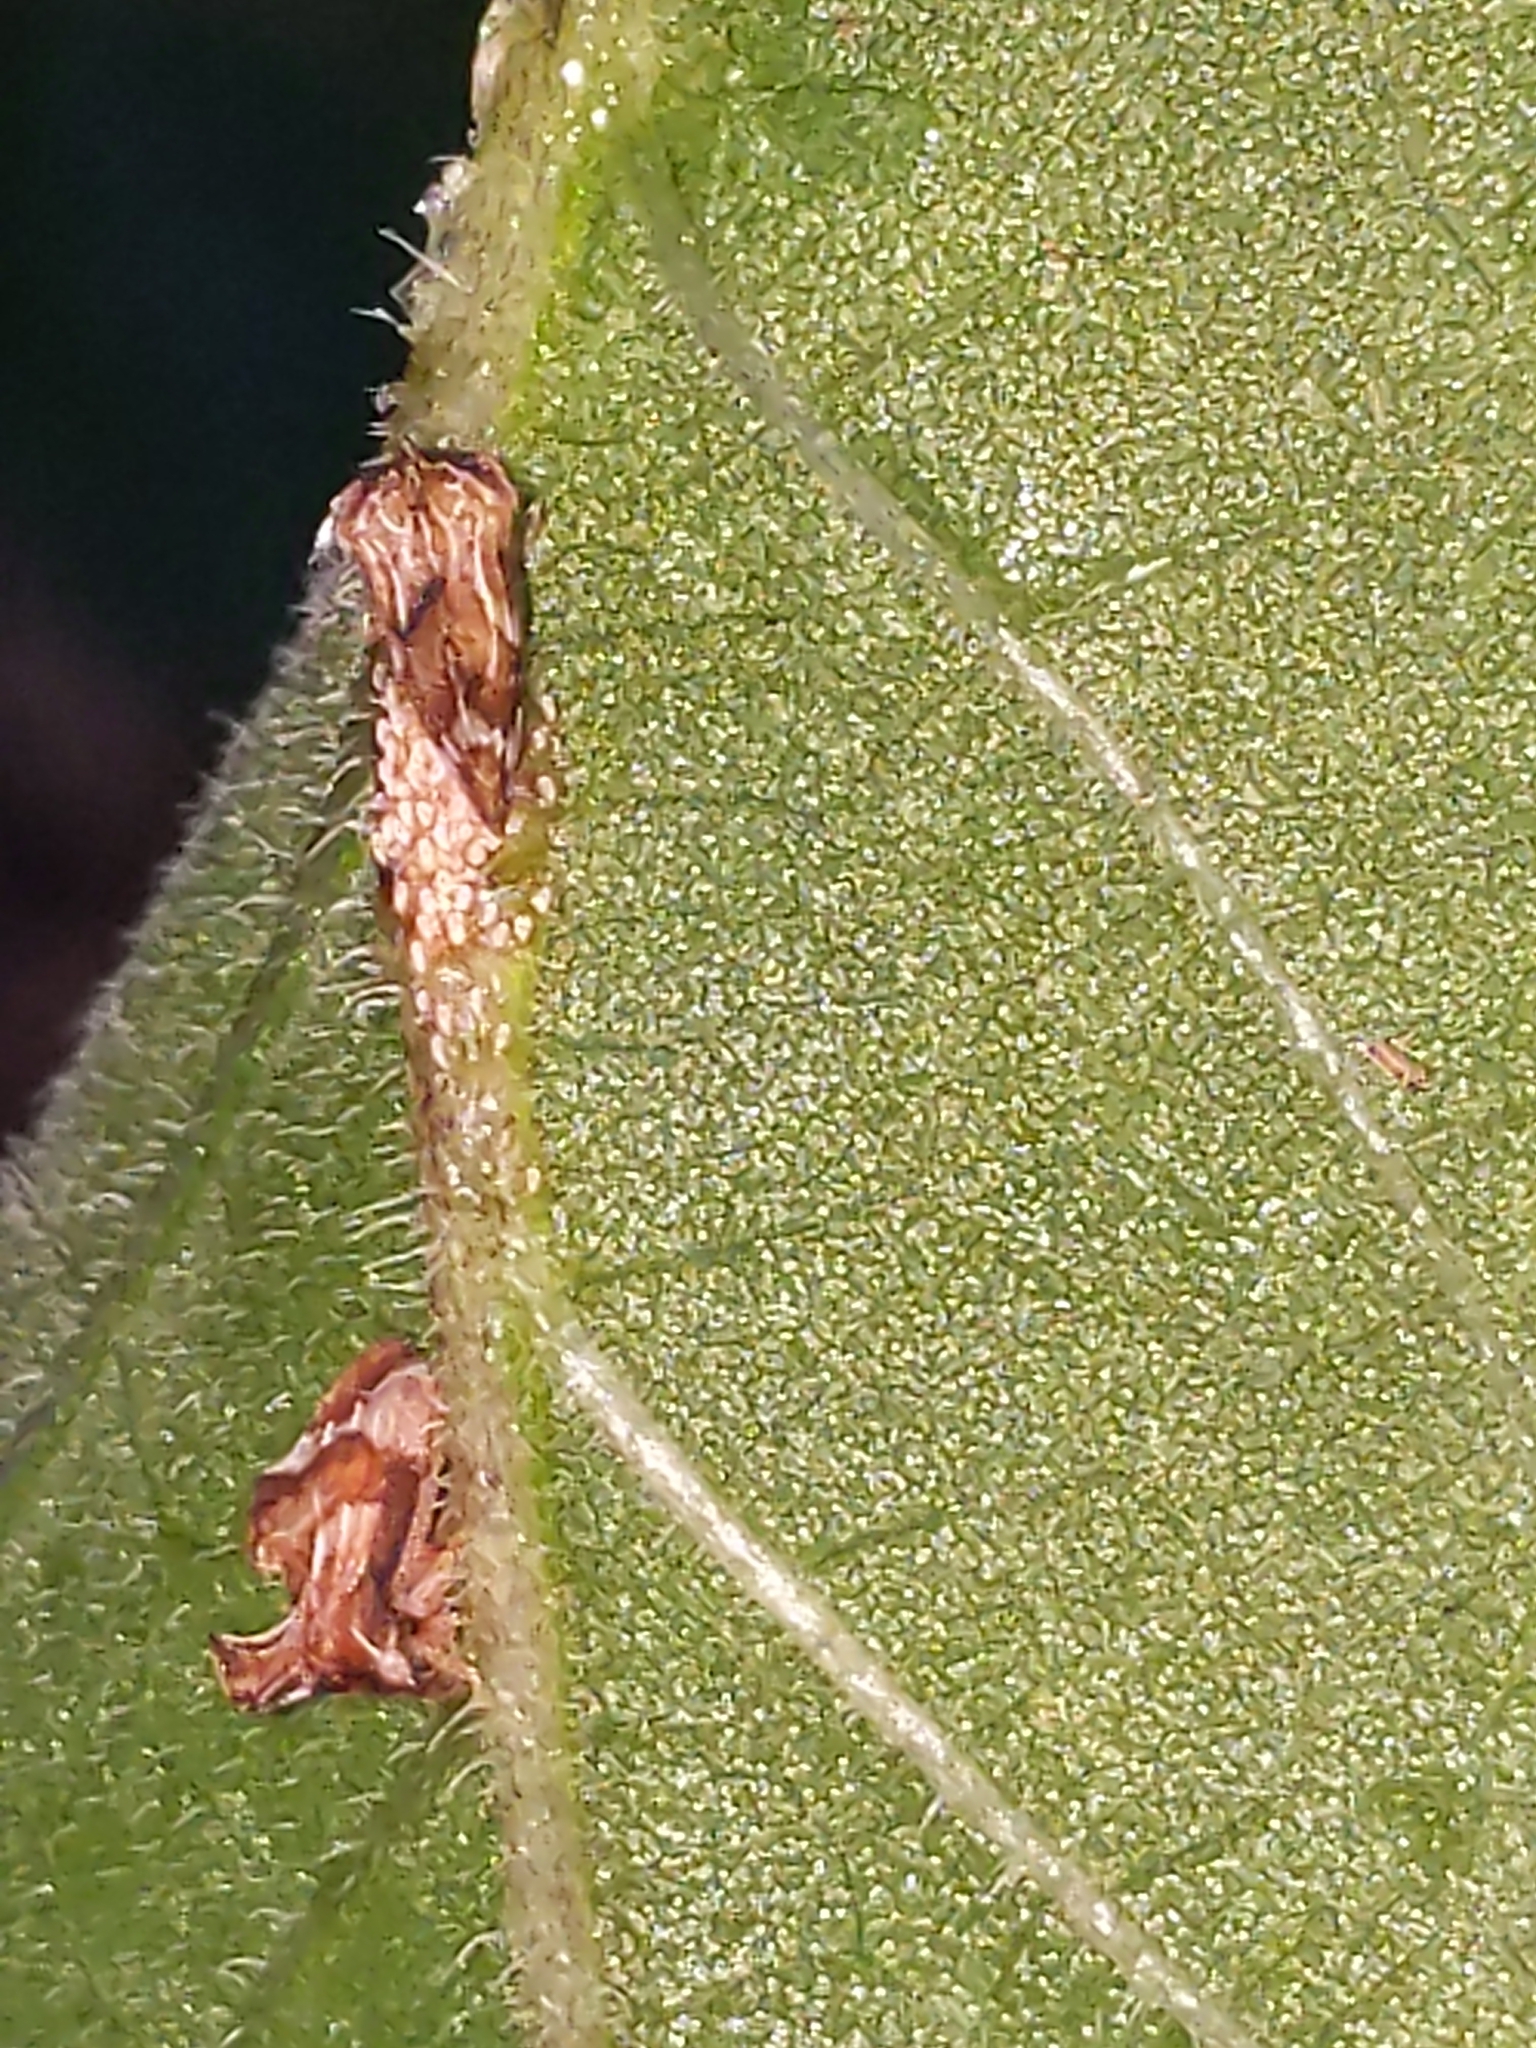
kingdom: Animalia
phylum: Arthropoda
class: Insecta
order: Hemiptera
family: Membracidae
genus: Entylia
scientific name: Entylia carinata
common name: Keeled treehopper
